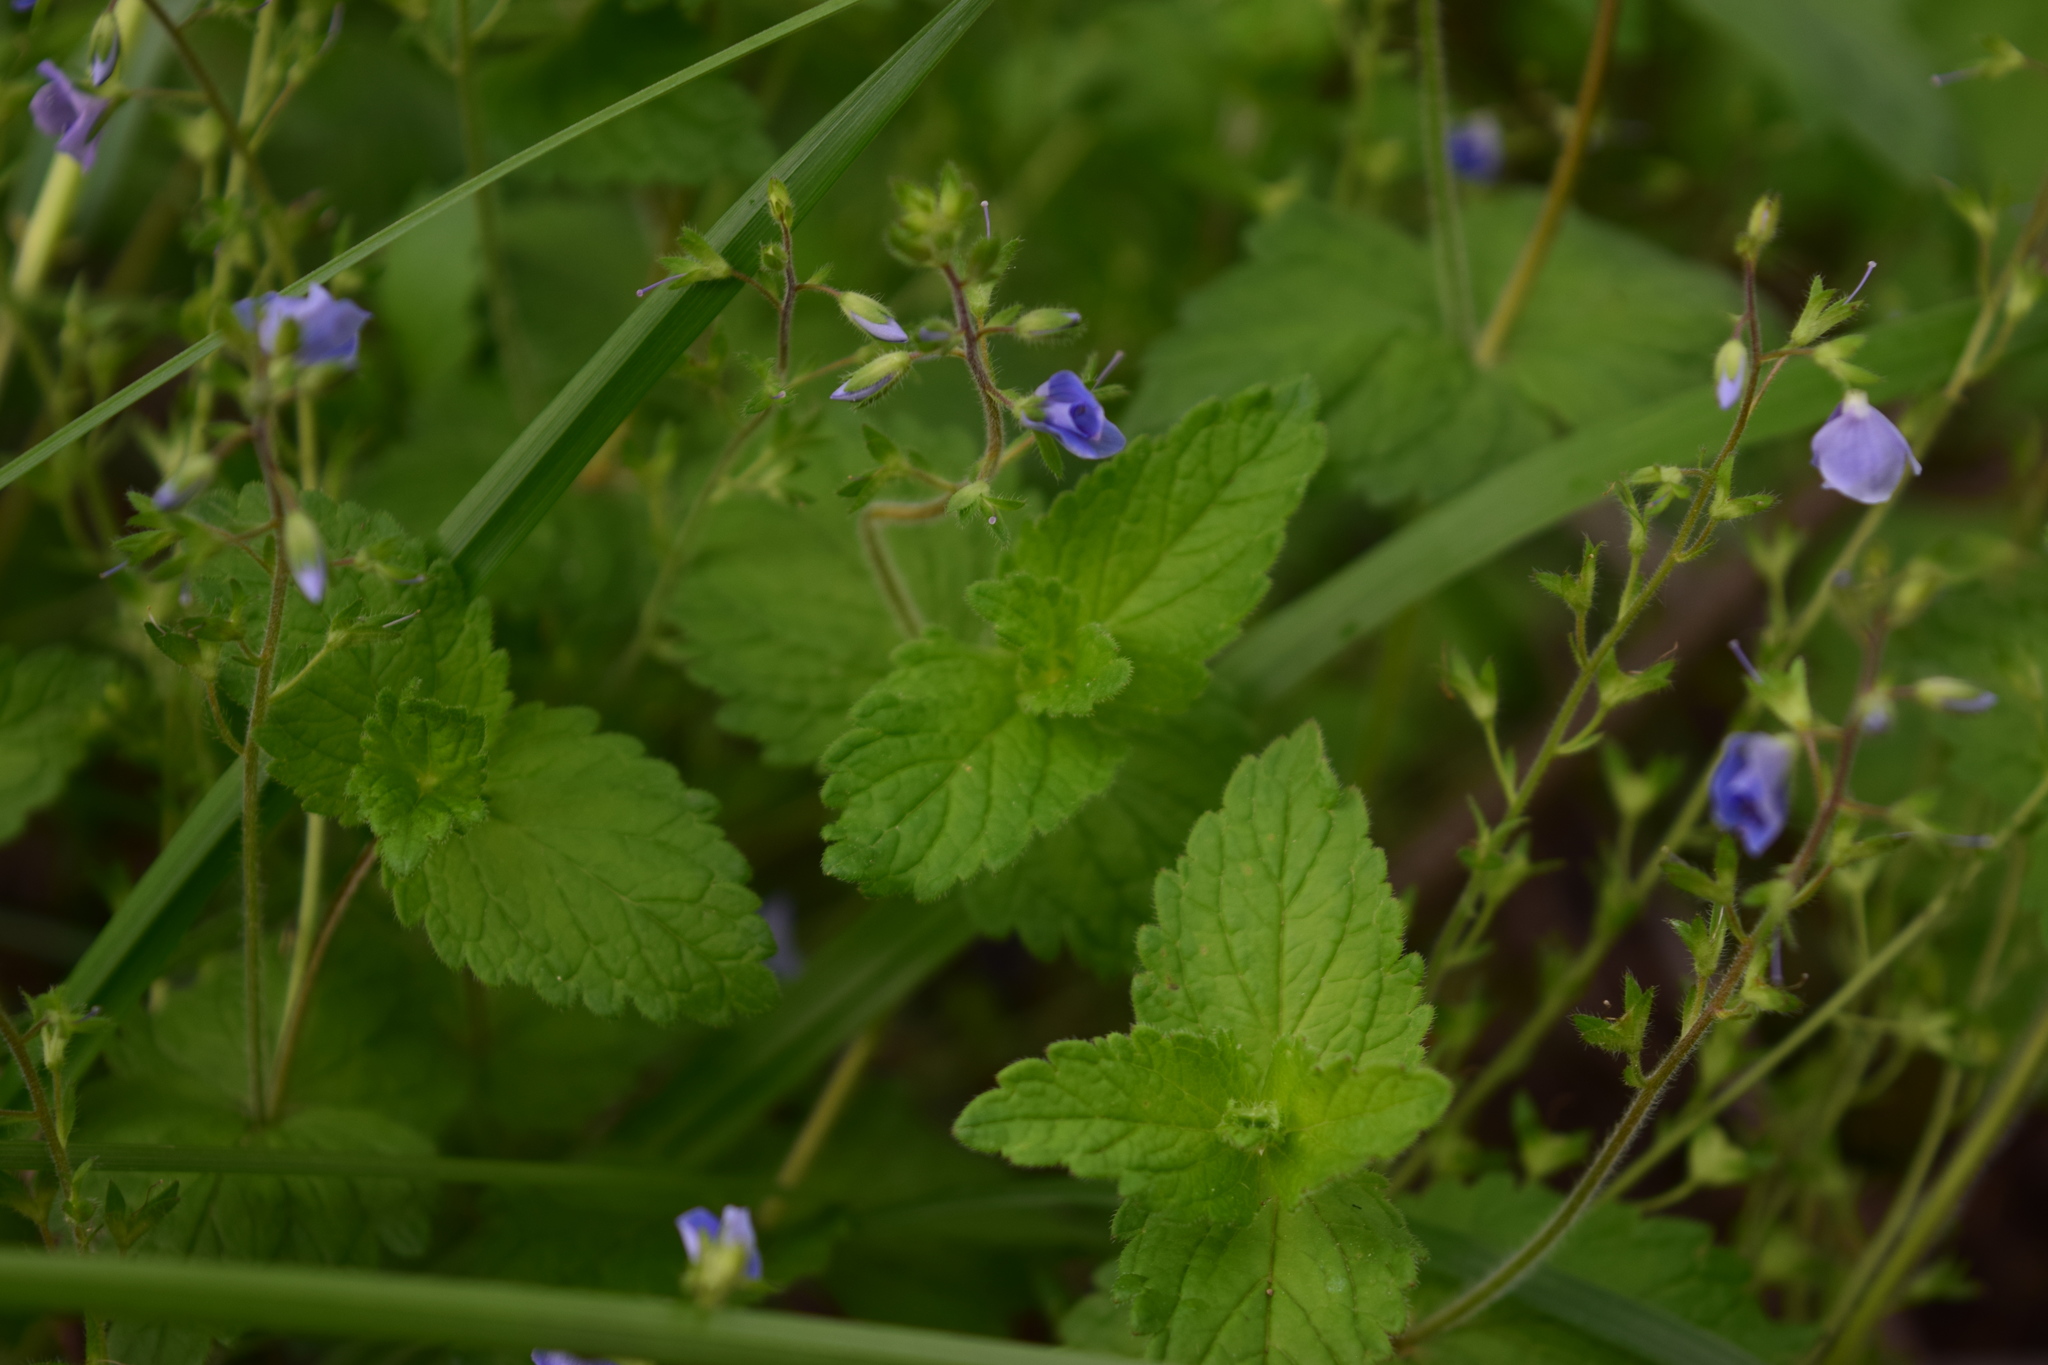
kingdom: Plantae
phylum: Tracheophyta
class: Magnoliopsida
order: Lamiales
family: Plantaginaceae
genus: Veronica
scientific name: Veronica chamaedrys
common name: Germander speedwell
